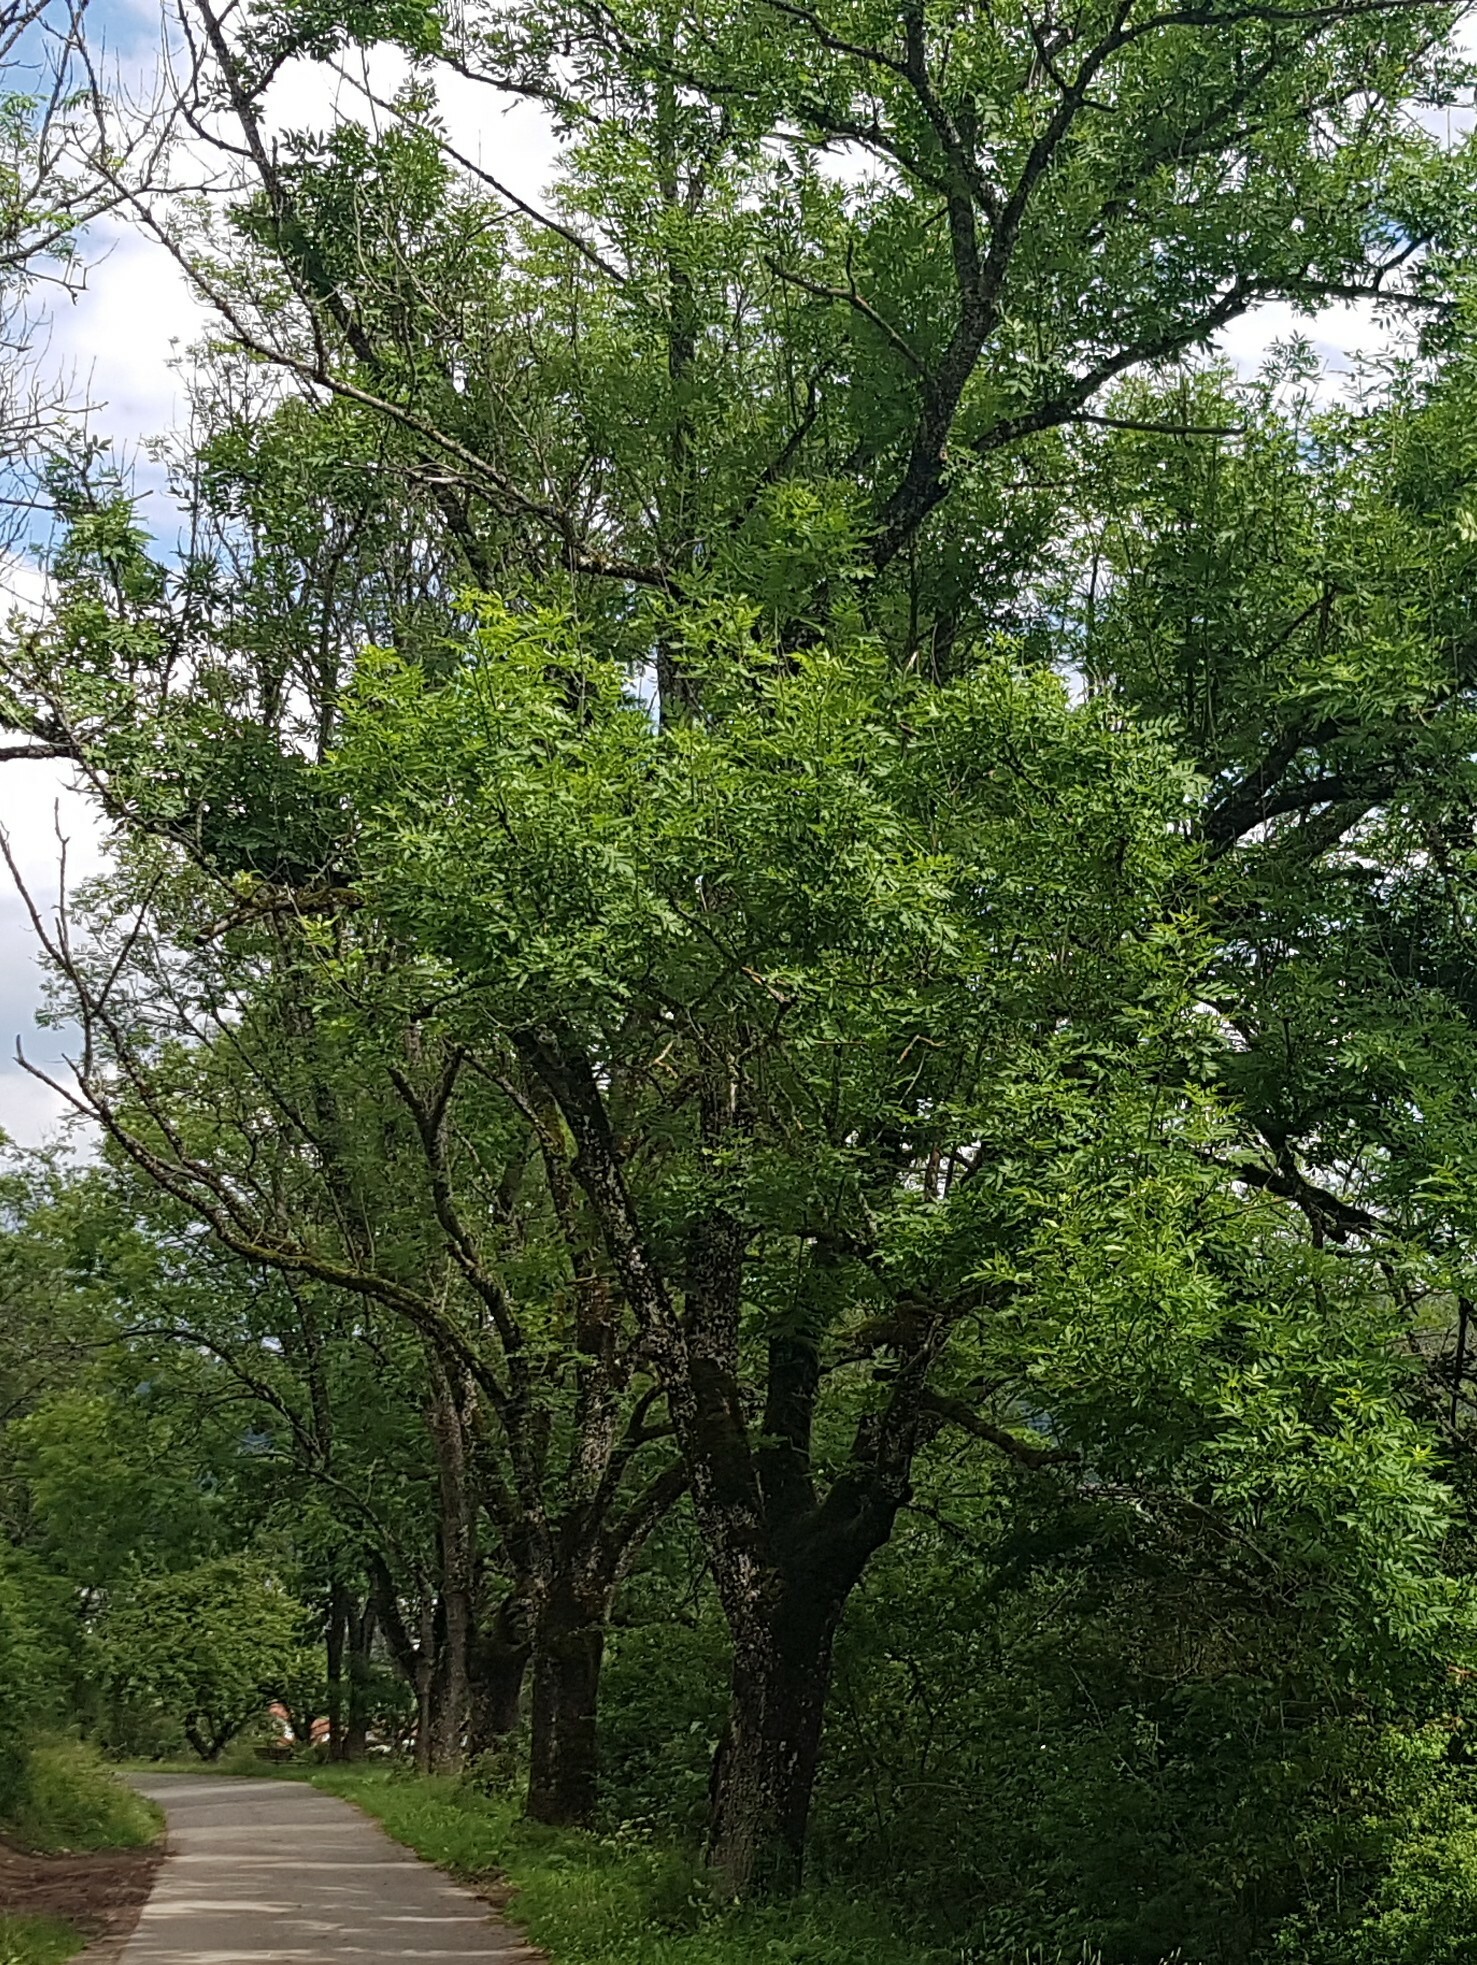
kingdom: Plantae
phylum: Tracheophyta
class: Magnoliopsida
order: Lamiales
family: Oleaceae
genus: Fraxinus
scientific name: Fraxinus excelsior
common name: European ash
